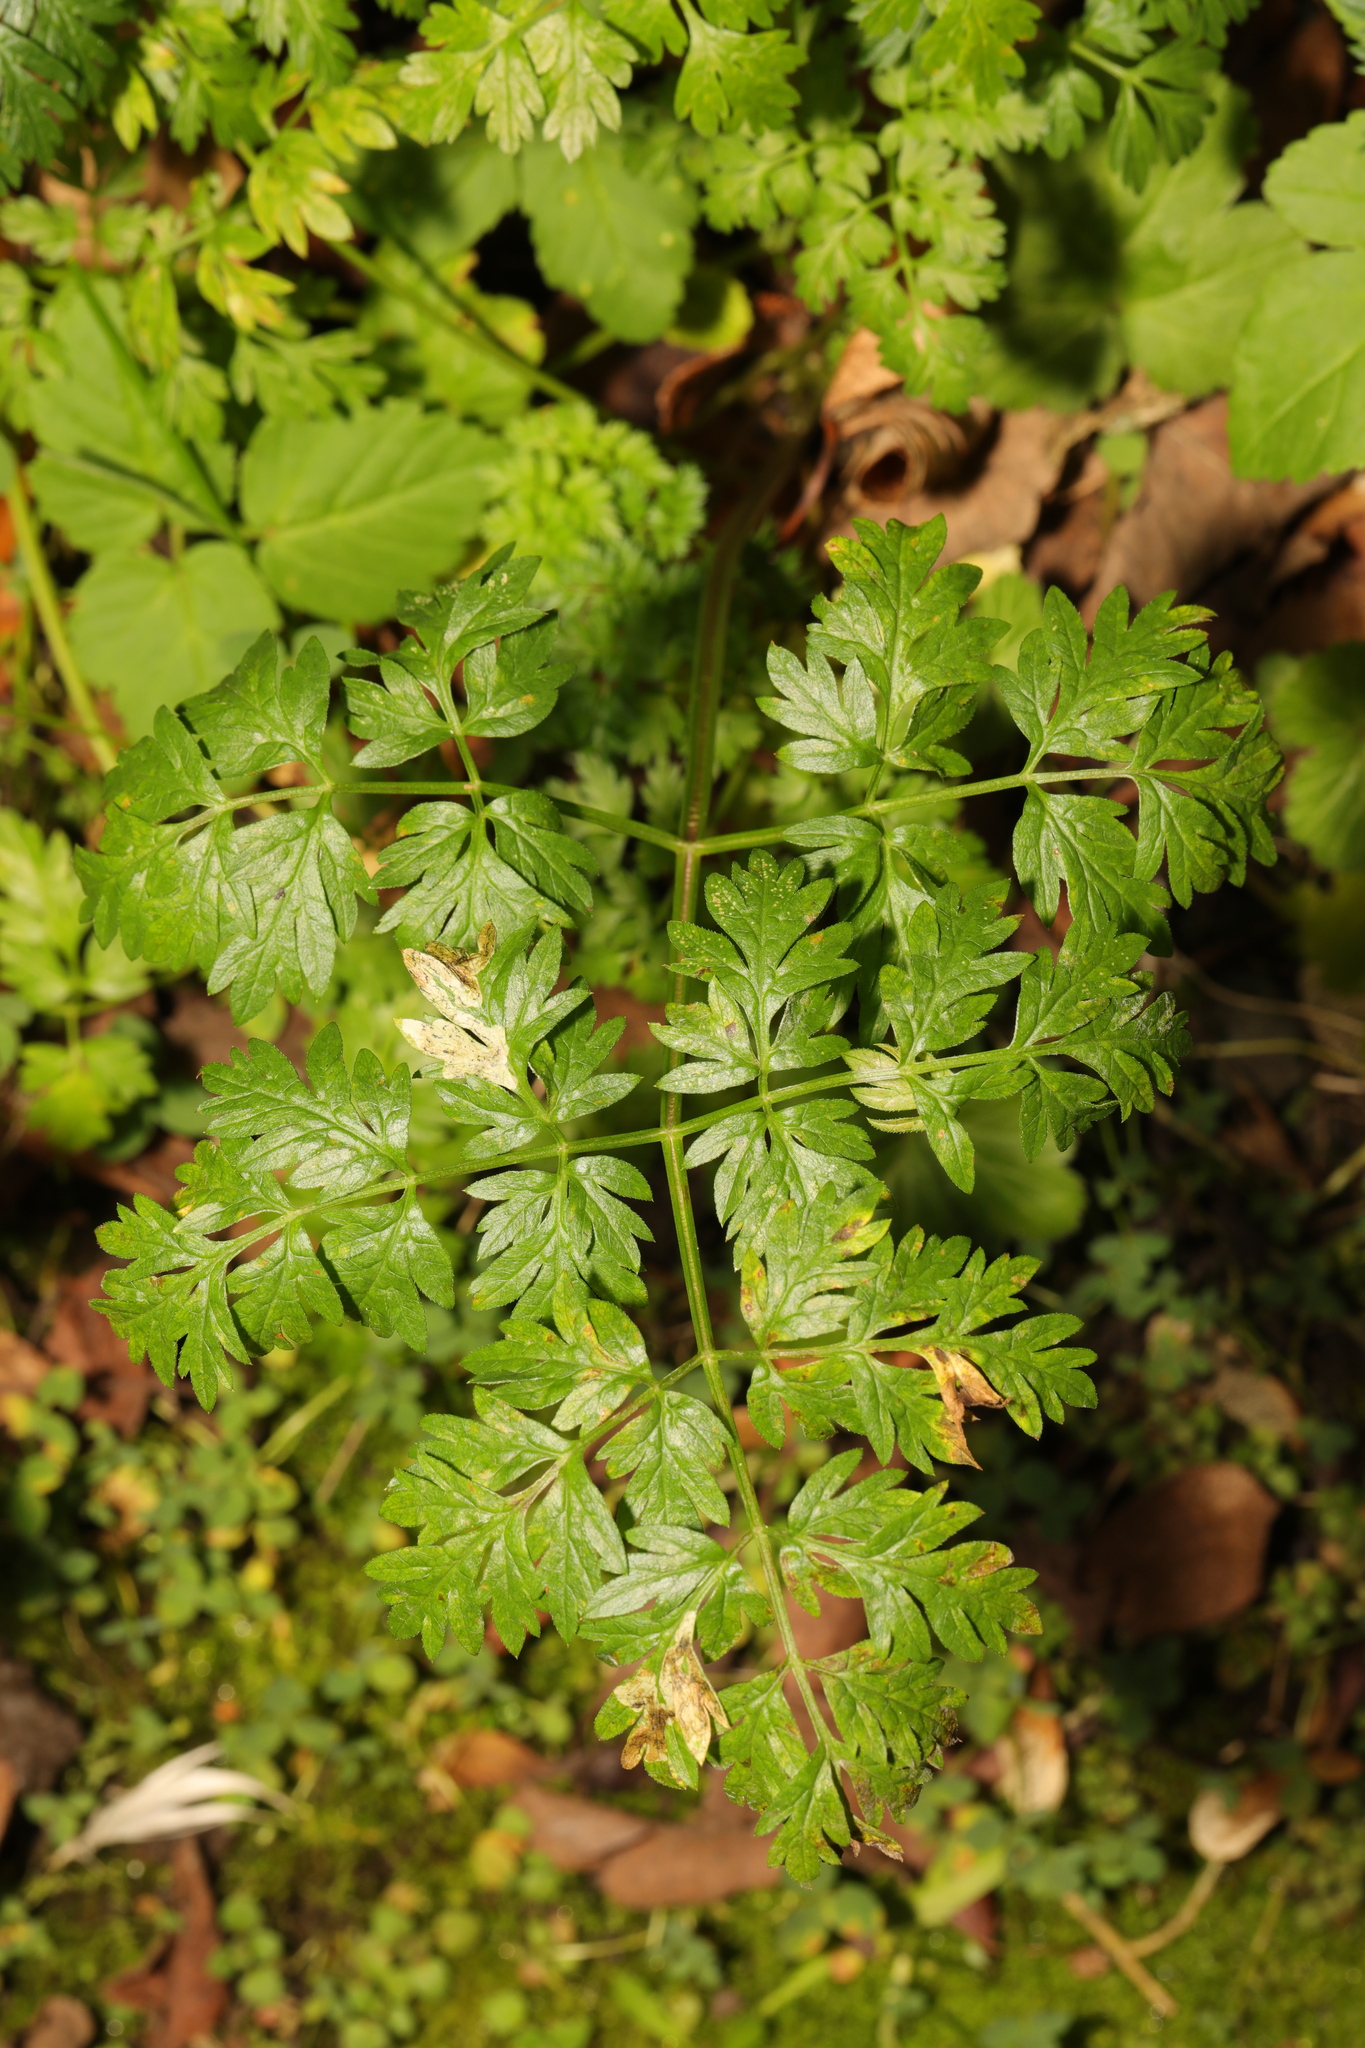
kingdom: Plantae
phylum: Tracheophyta
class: Magnoliopsida
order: Apiales
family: Apiaceae
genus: Anthriscus
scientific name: Anthriscus sylvestris
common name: Cow parsley
